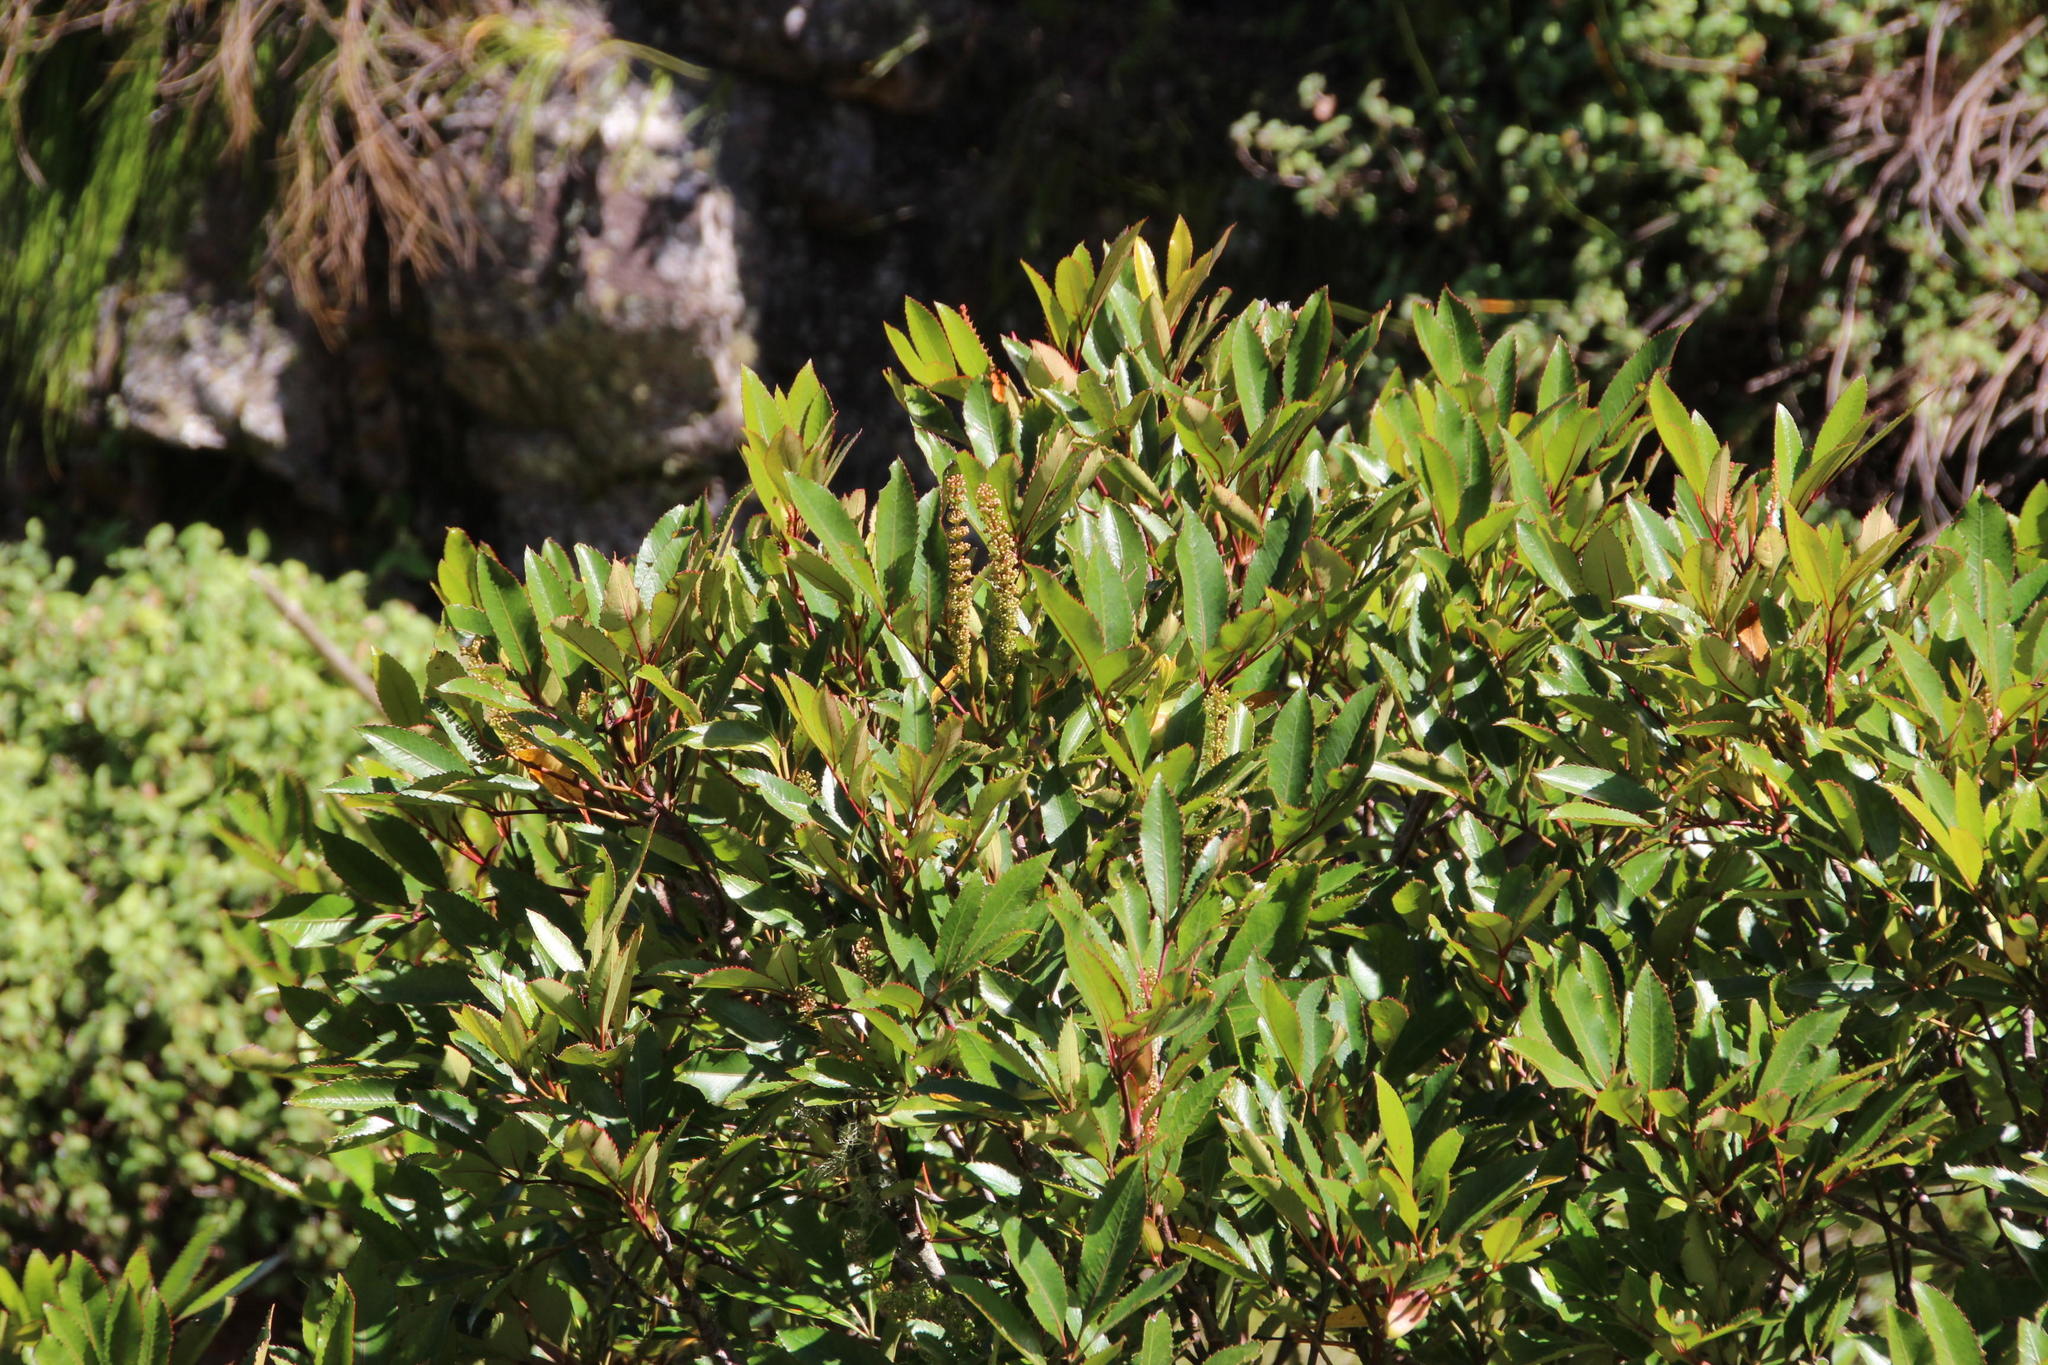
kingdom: Plantae
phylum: Tracheophyta
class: Magnoliopsida
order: Oxalidales
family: Cunoniaceae
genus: Cunonia
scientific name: Cunonia capensis
